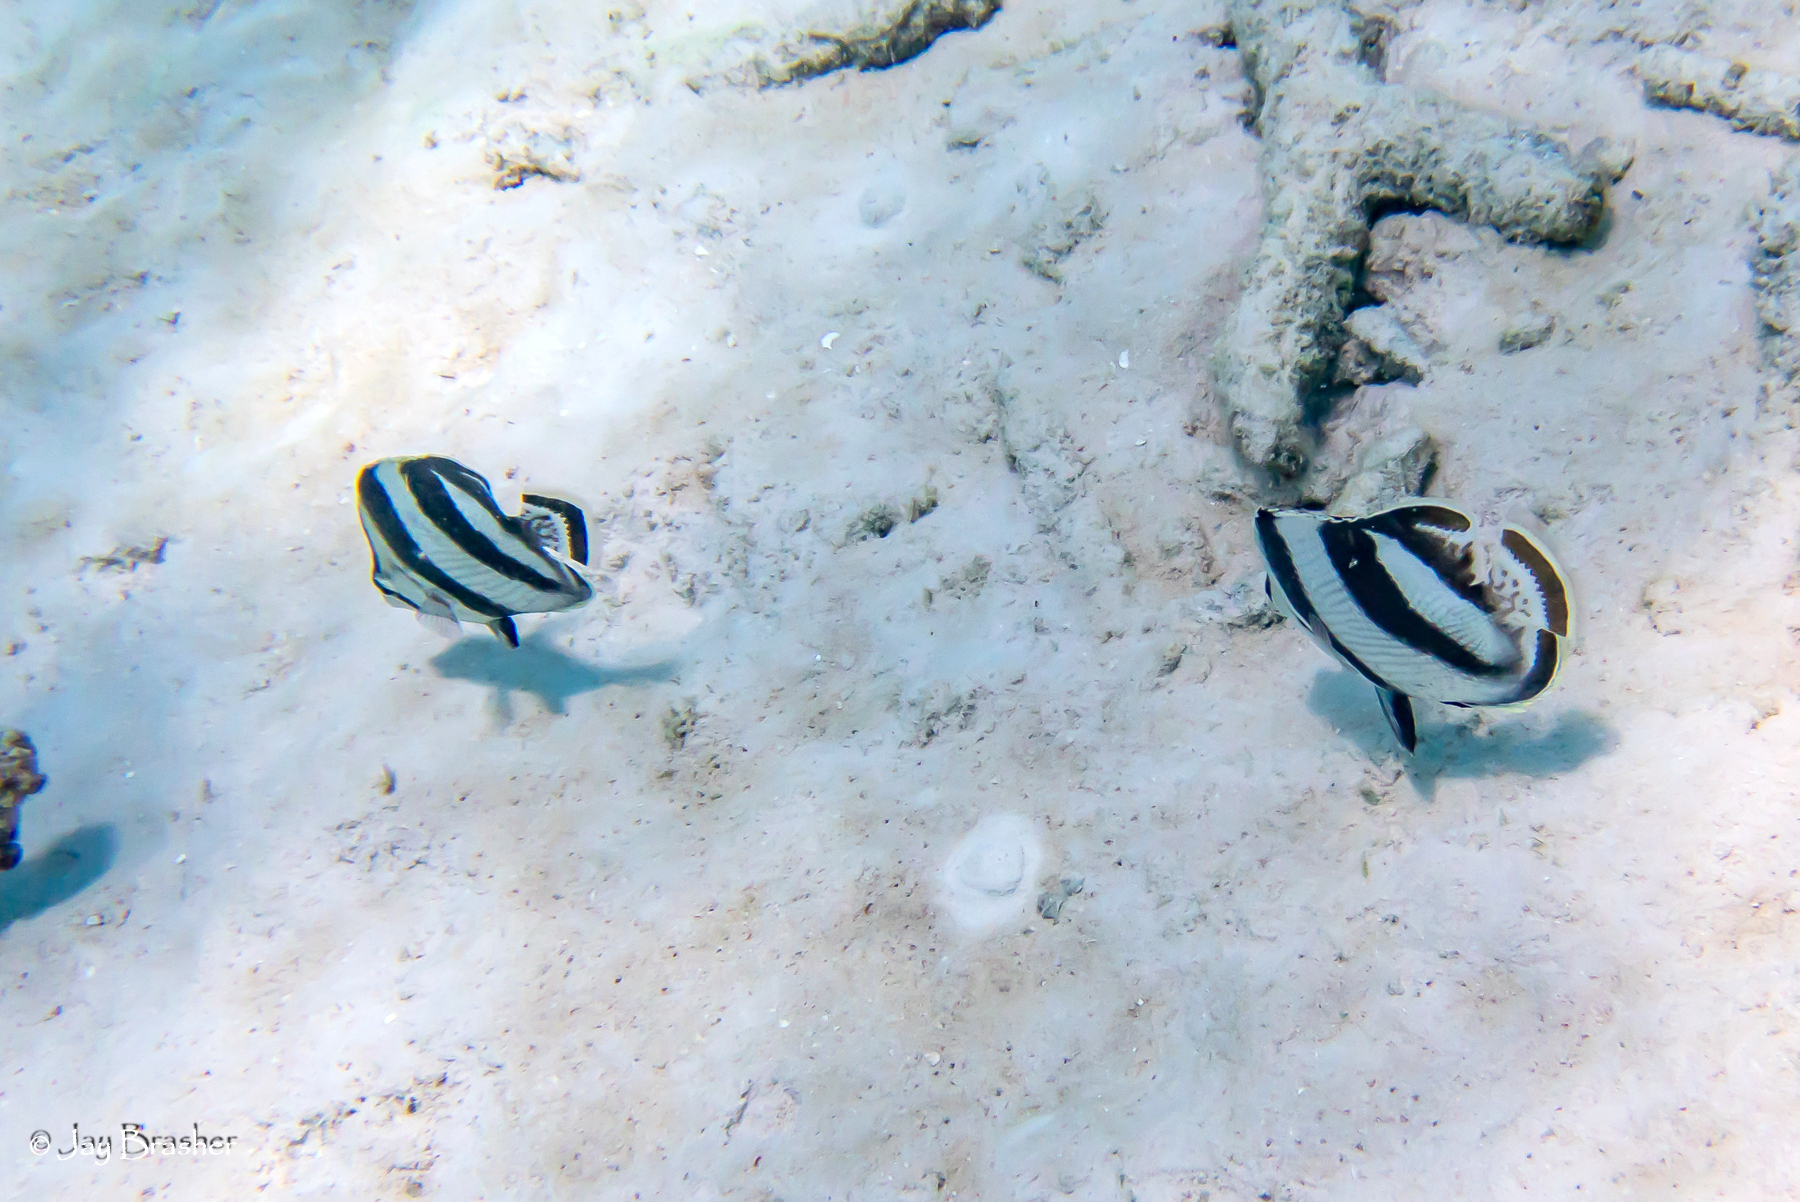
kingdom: Animalia
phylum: Chordata
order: Perciformes
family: Chaetodontidae
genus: Chaetodon
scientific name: Chaetodon striatus
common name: Banded butterflyfish
